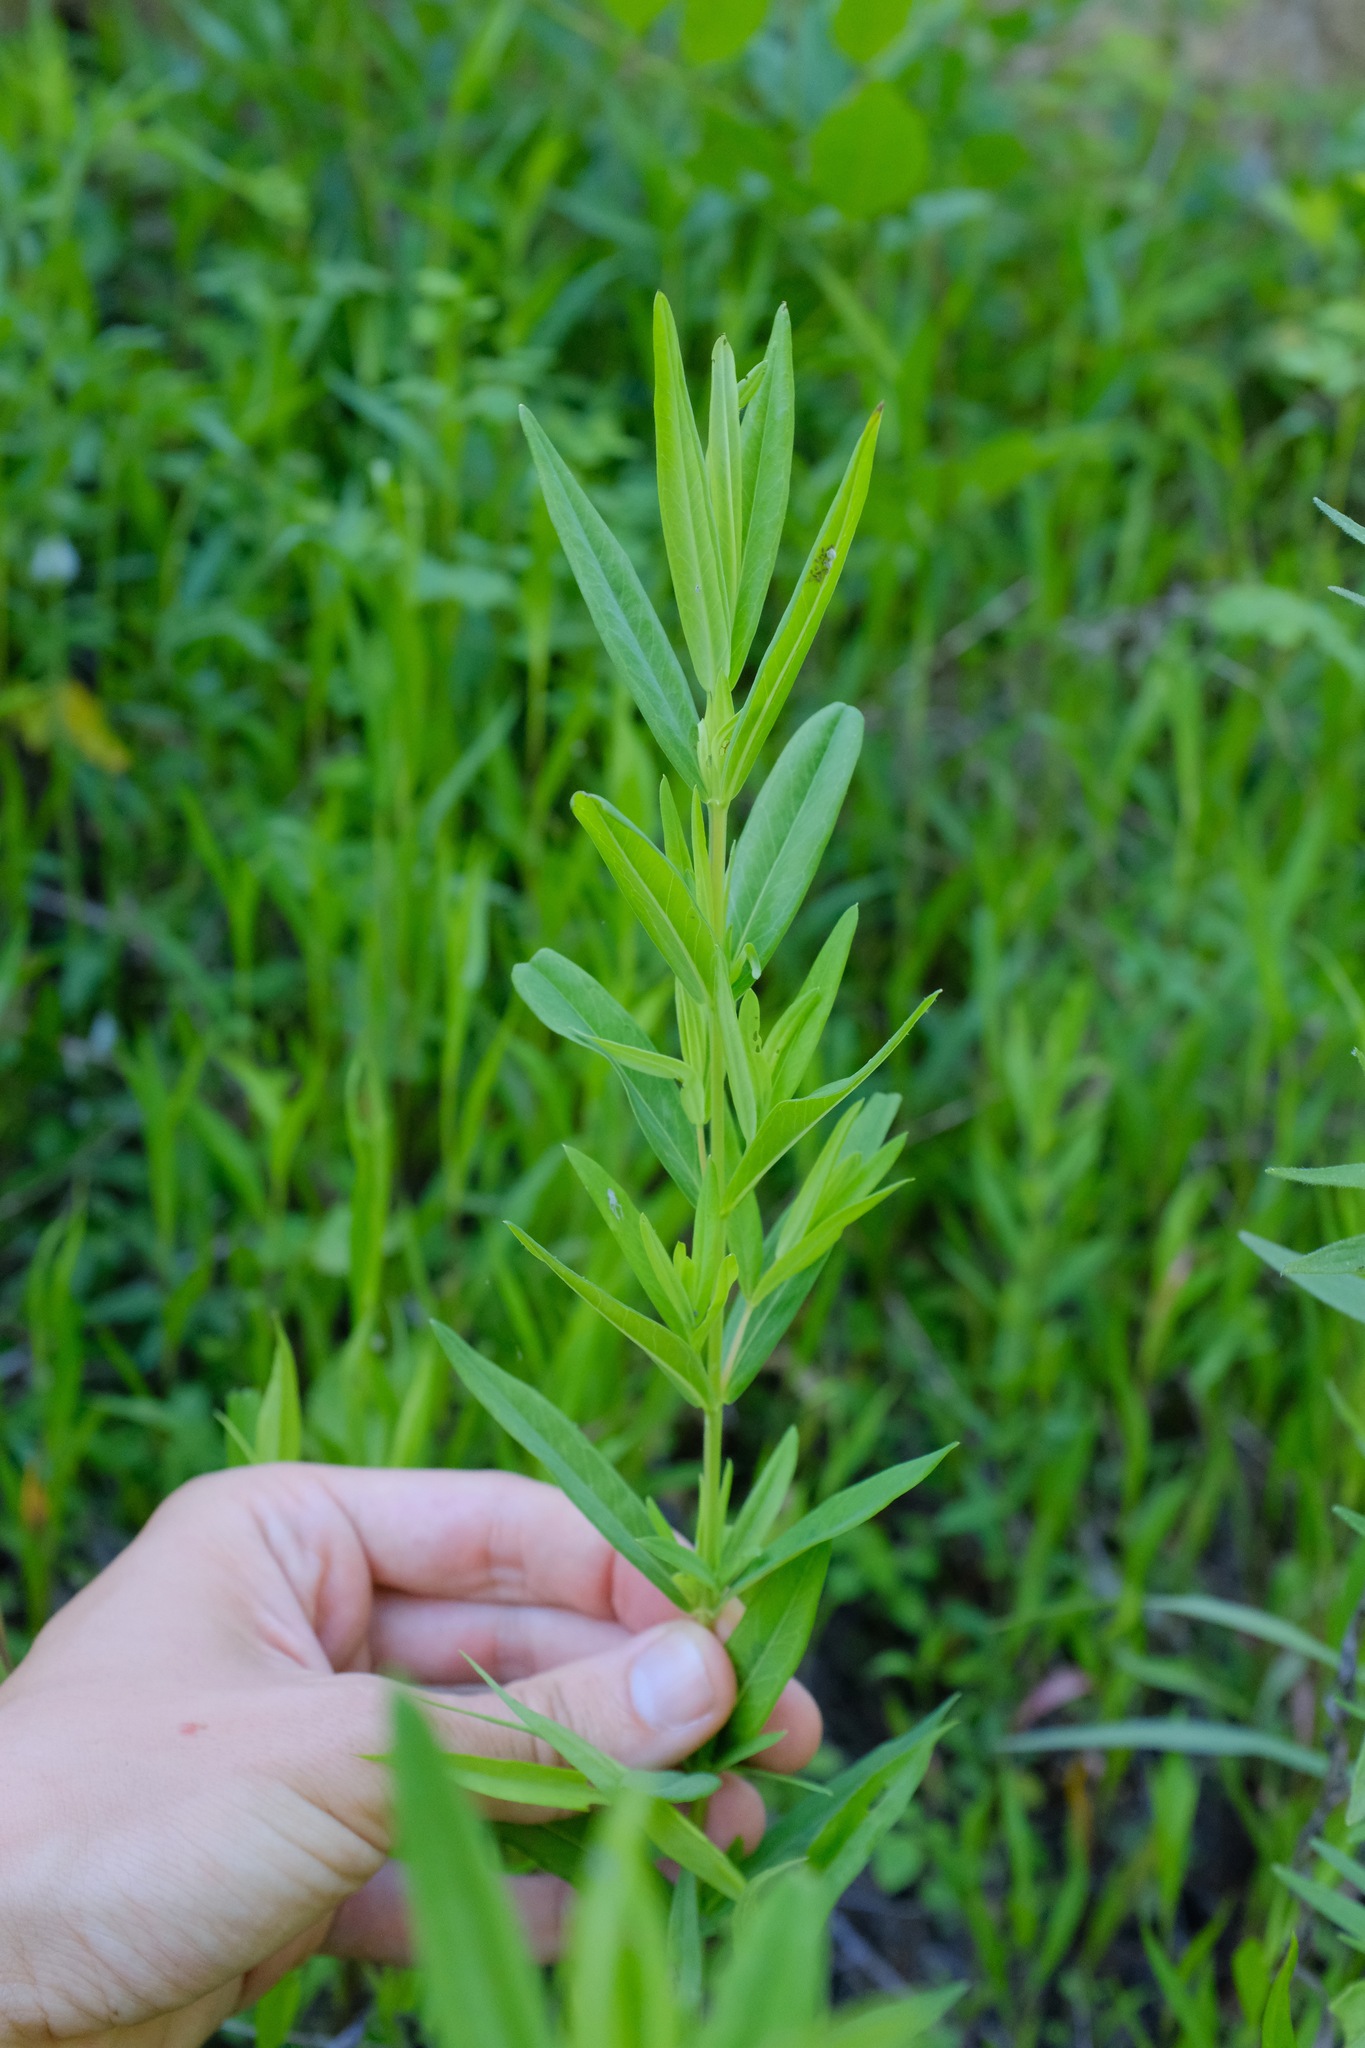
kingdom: Plantae
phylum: Tracheophyta
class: Magnoliopsida
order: Malpighiales
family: Hypericaceae
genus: Hypericum
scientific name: Hypericum sphaerocarpum
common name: Round-fruited st. john's-wort
